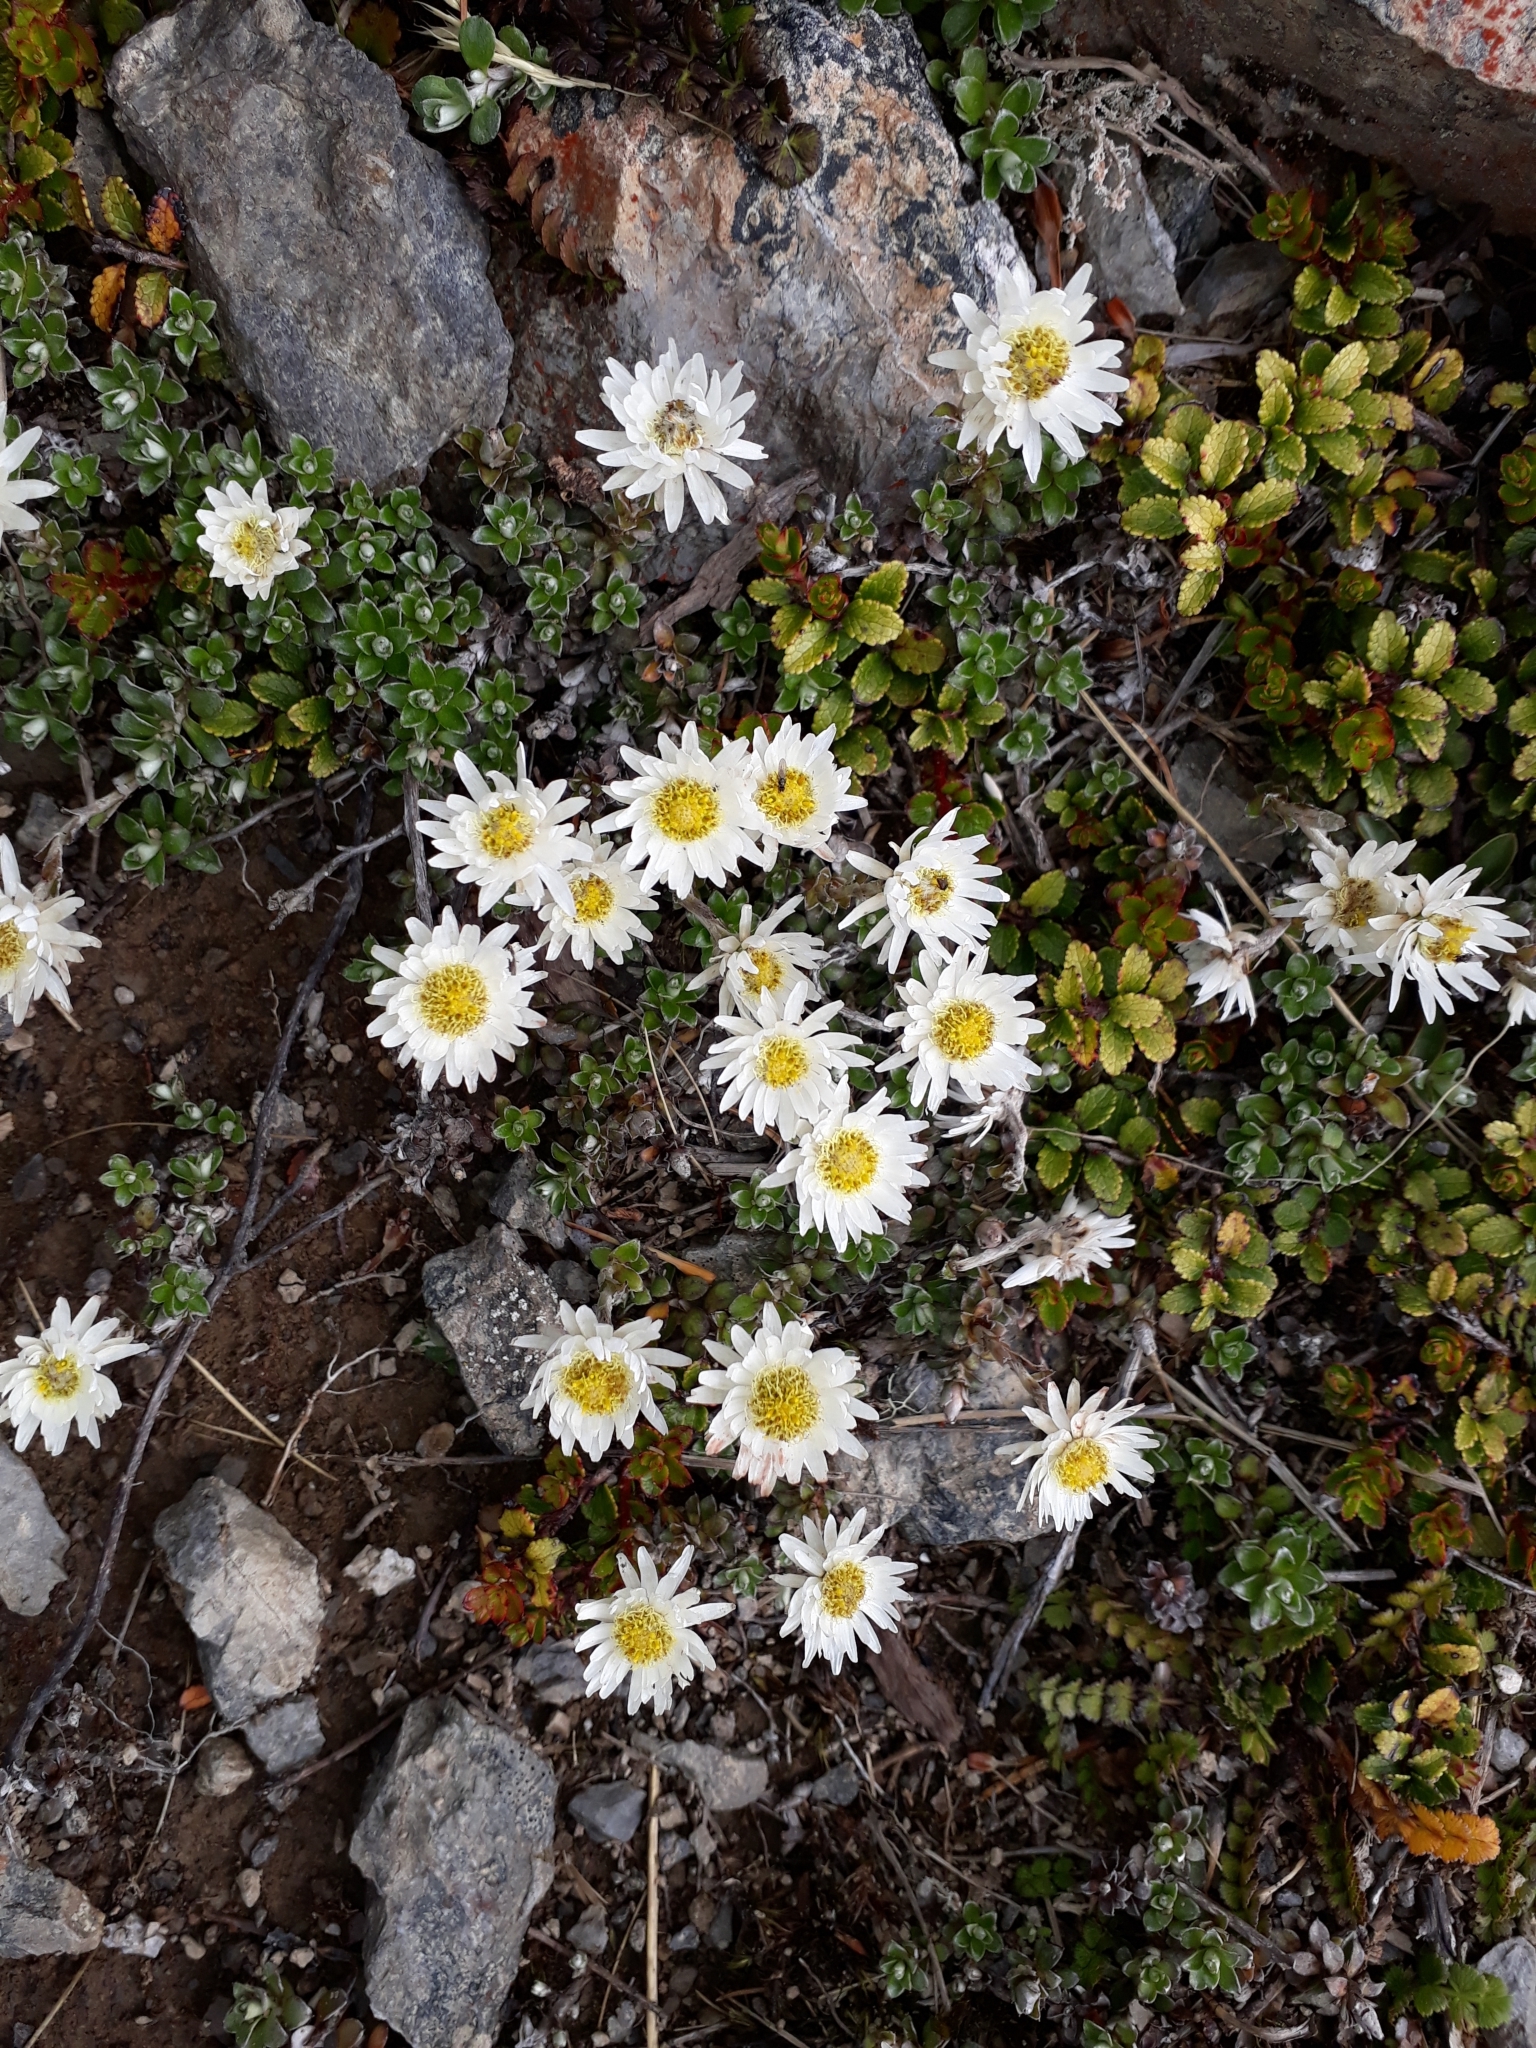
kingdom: Plantae
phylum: Tracheophyta
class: Magnoliopsida
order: Asterales
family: Asteraceae
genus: Anaphalioides
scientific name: Anaphalioides bellidioides
